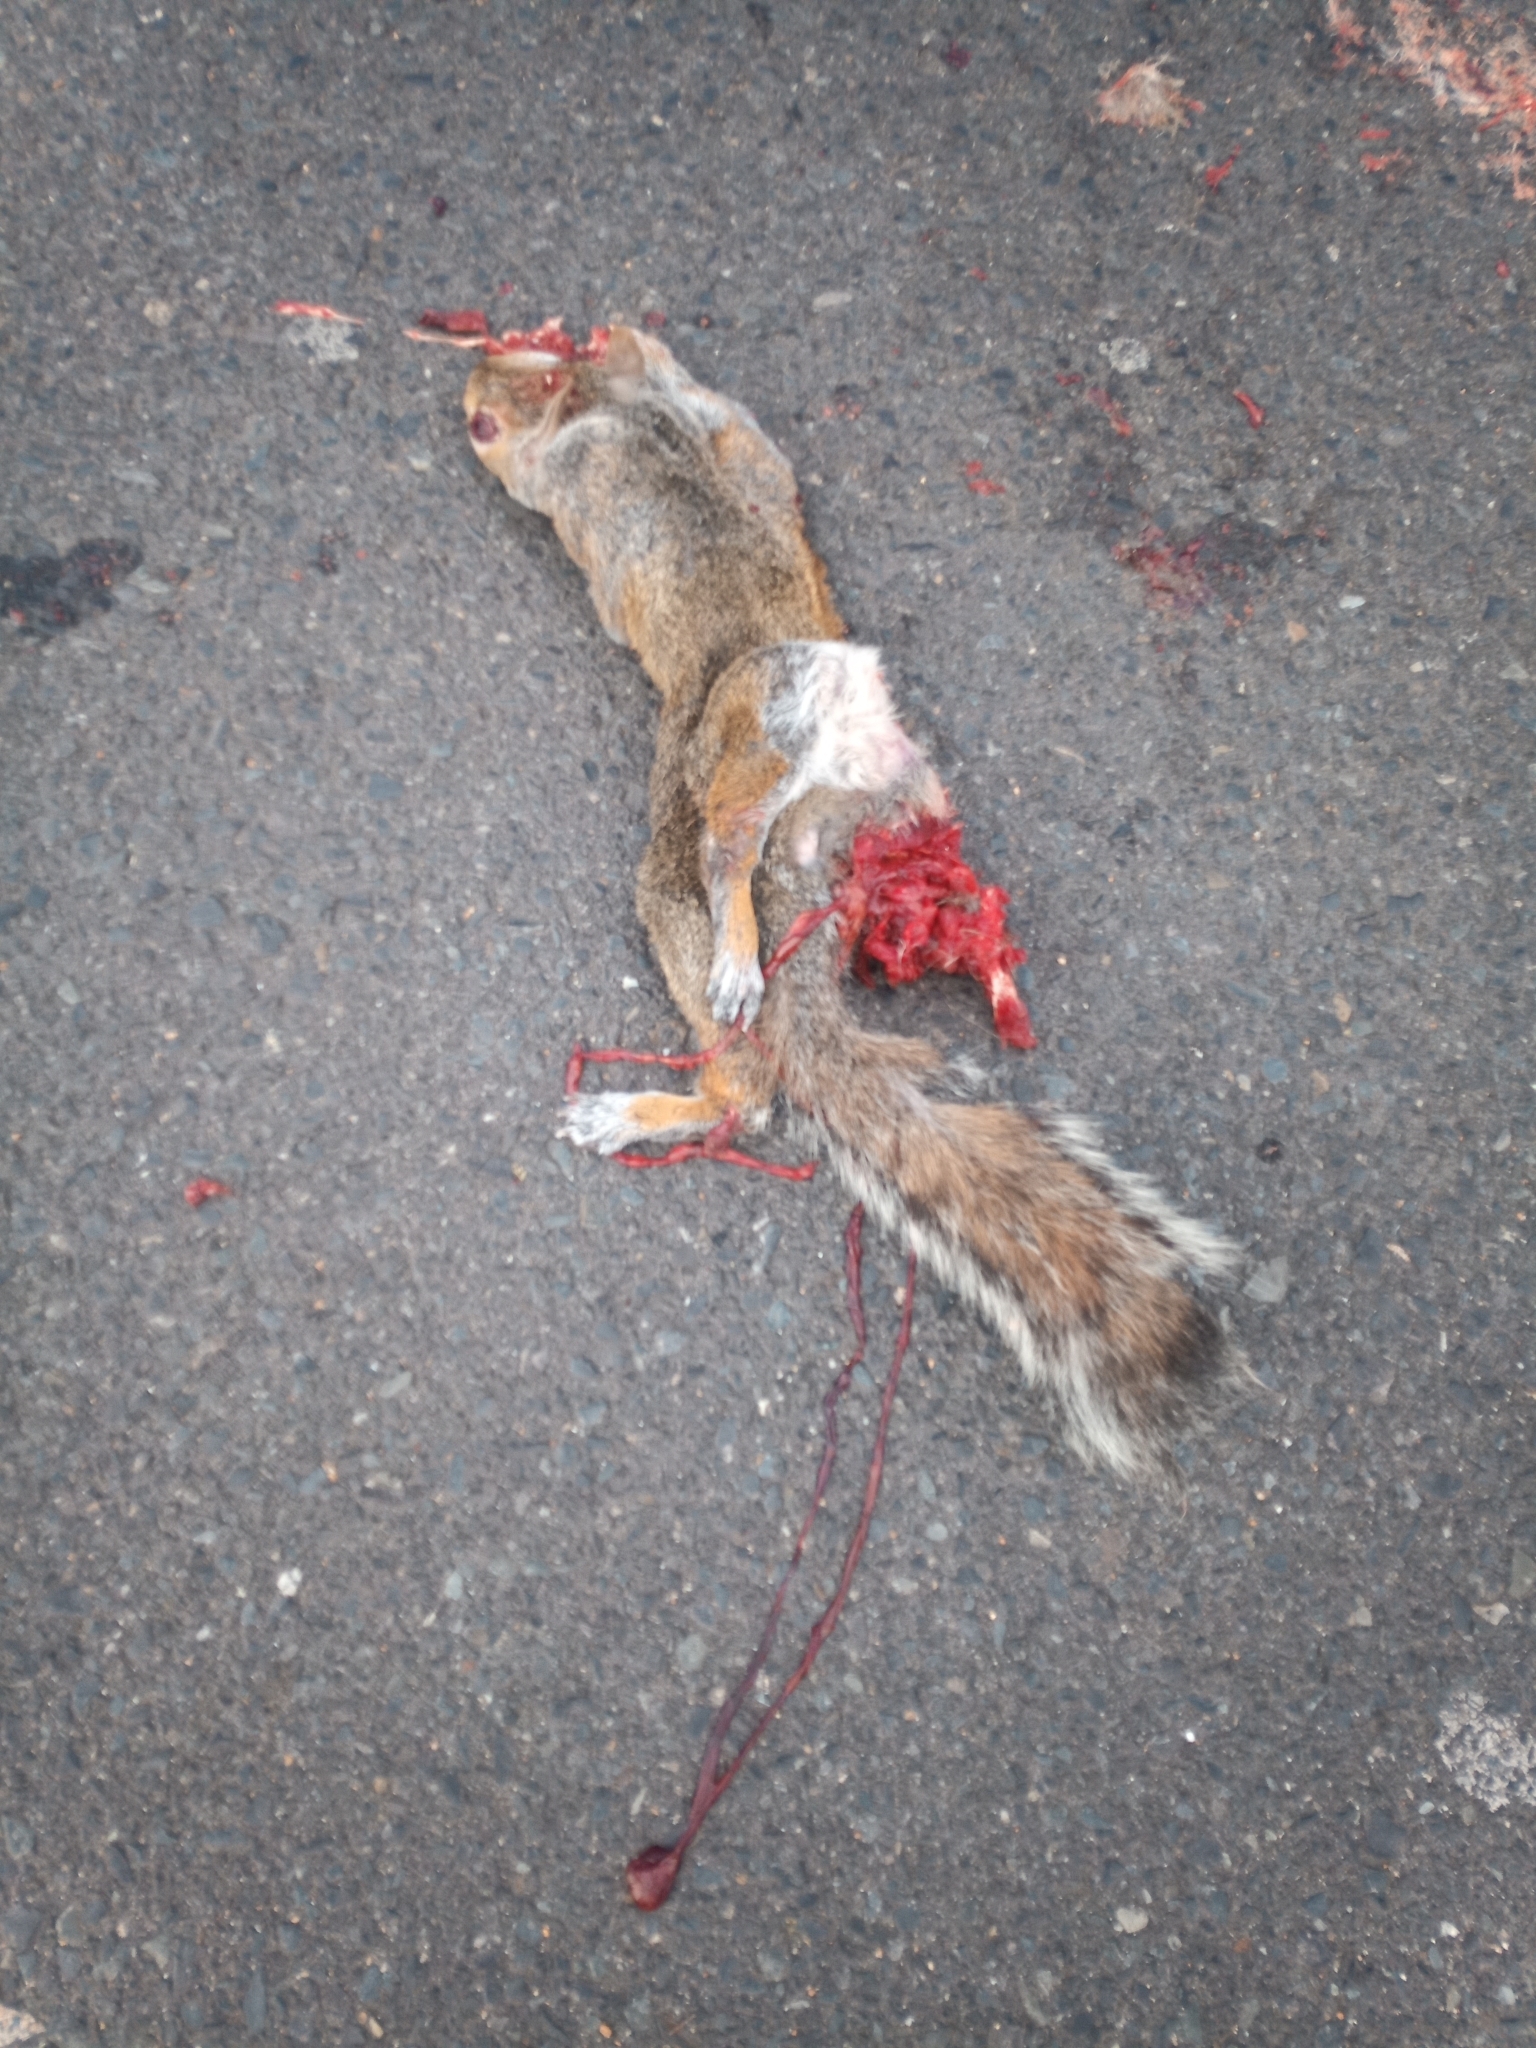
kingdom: Animalia
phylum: Chordata
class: Mammalia
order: Rodentia
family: Sciuridae
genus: Sciurus
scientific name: Sciurus carolinensis
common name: Eastern gray squirrel
